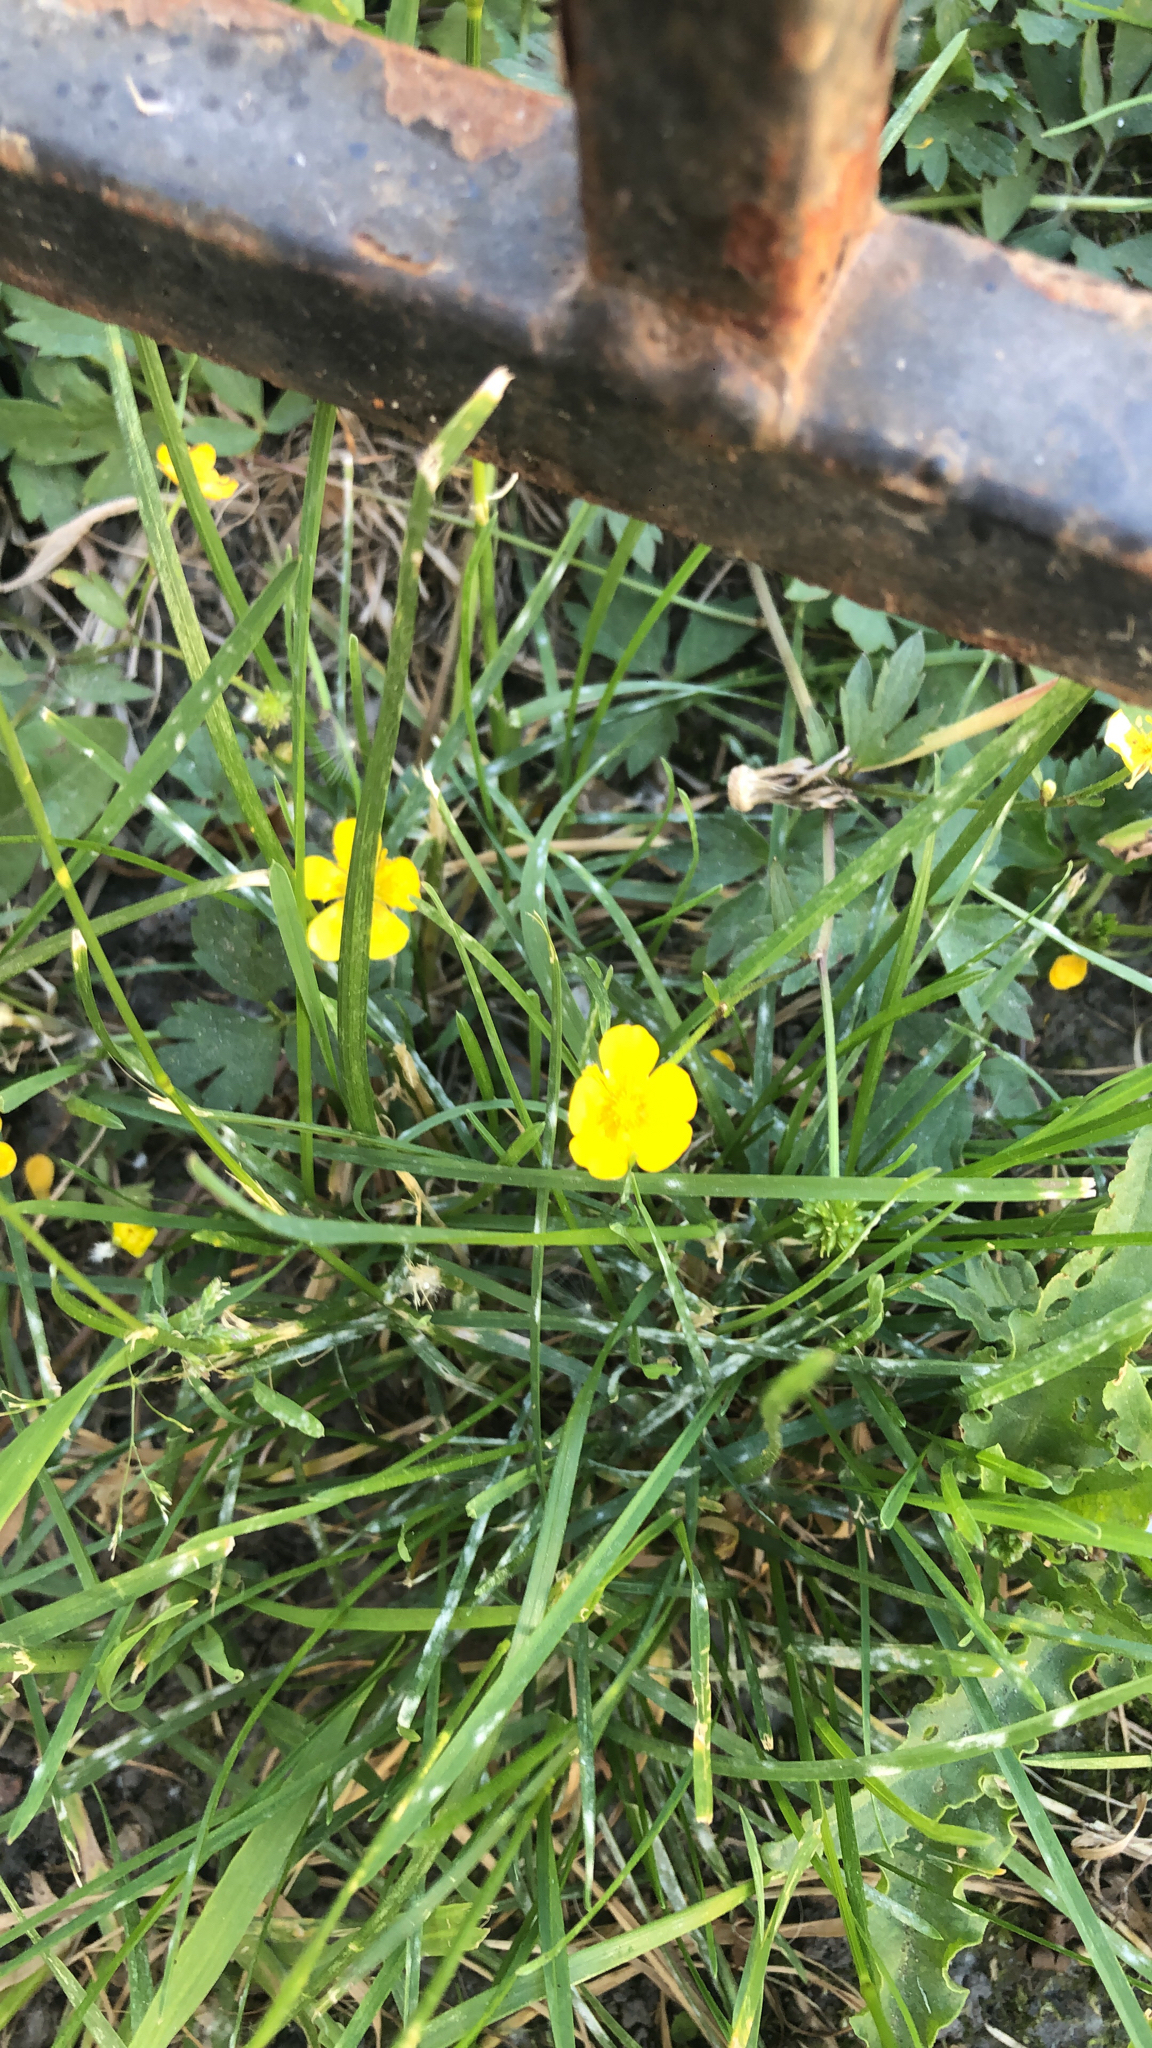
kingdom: Plantae
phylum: Tracheophyta
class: Magnoliopsida
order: Ranunculales
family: Ranunculaceae
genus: Ranunculus
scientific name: Ranunculus repens
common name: Creeping buttercup
